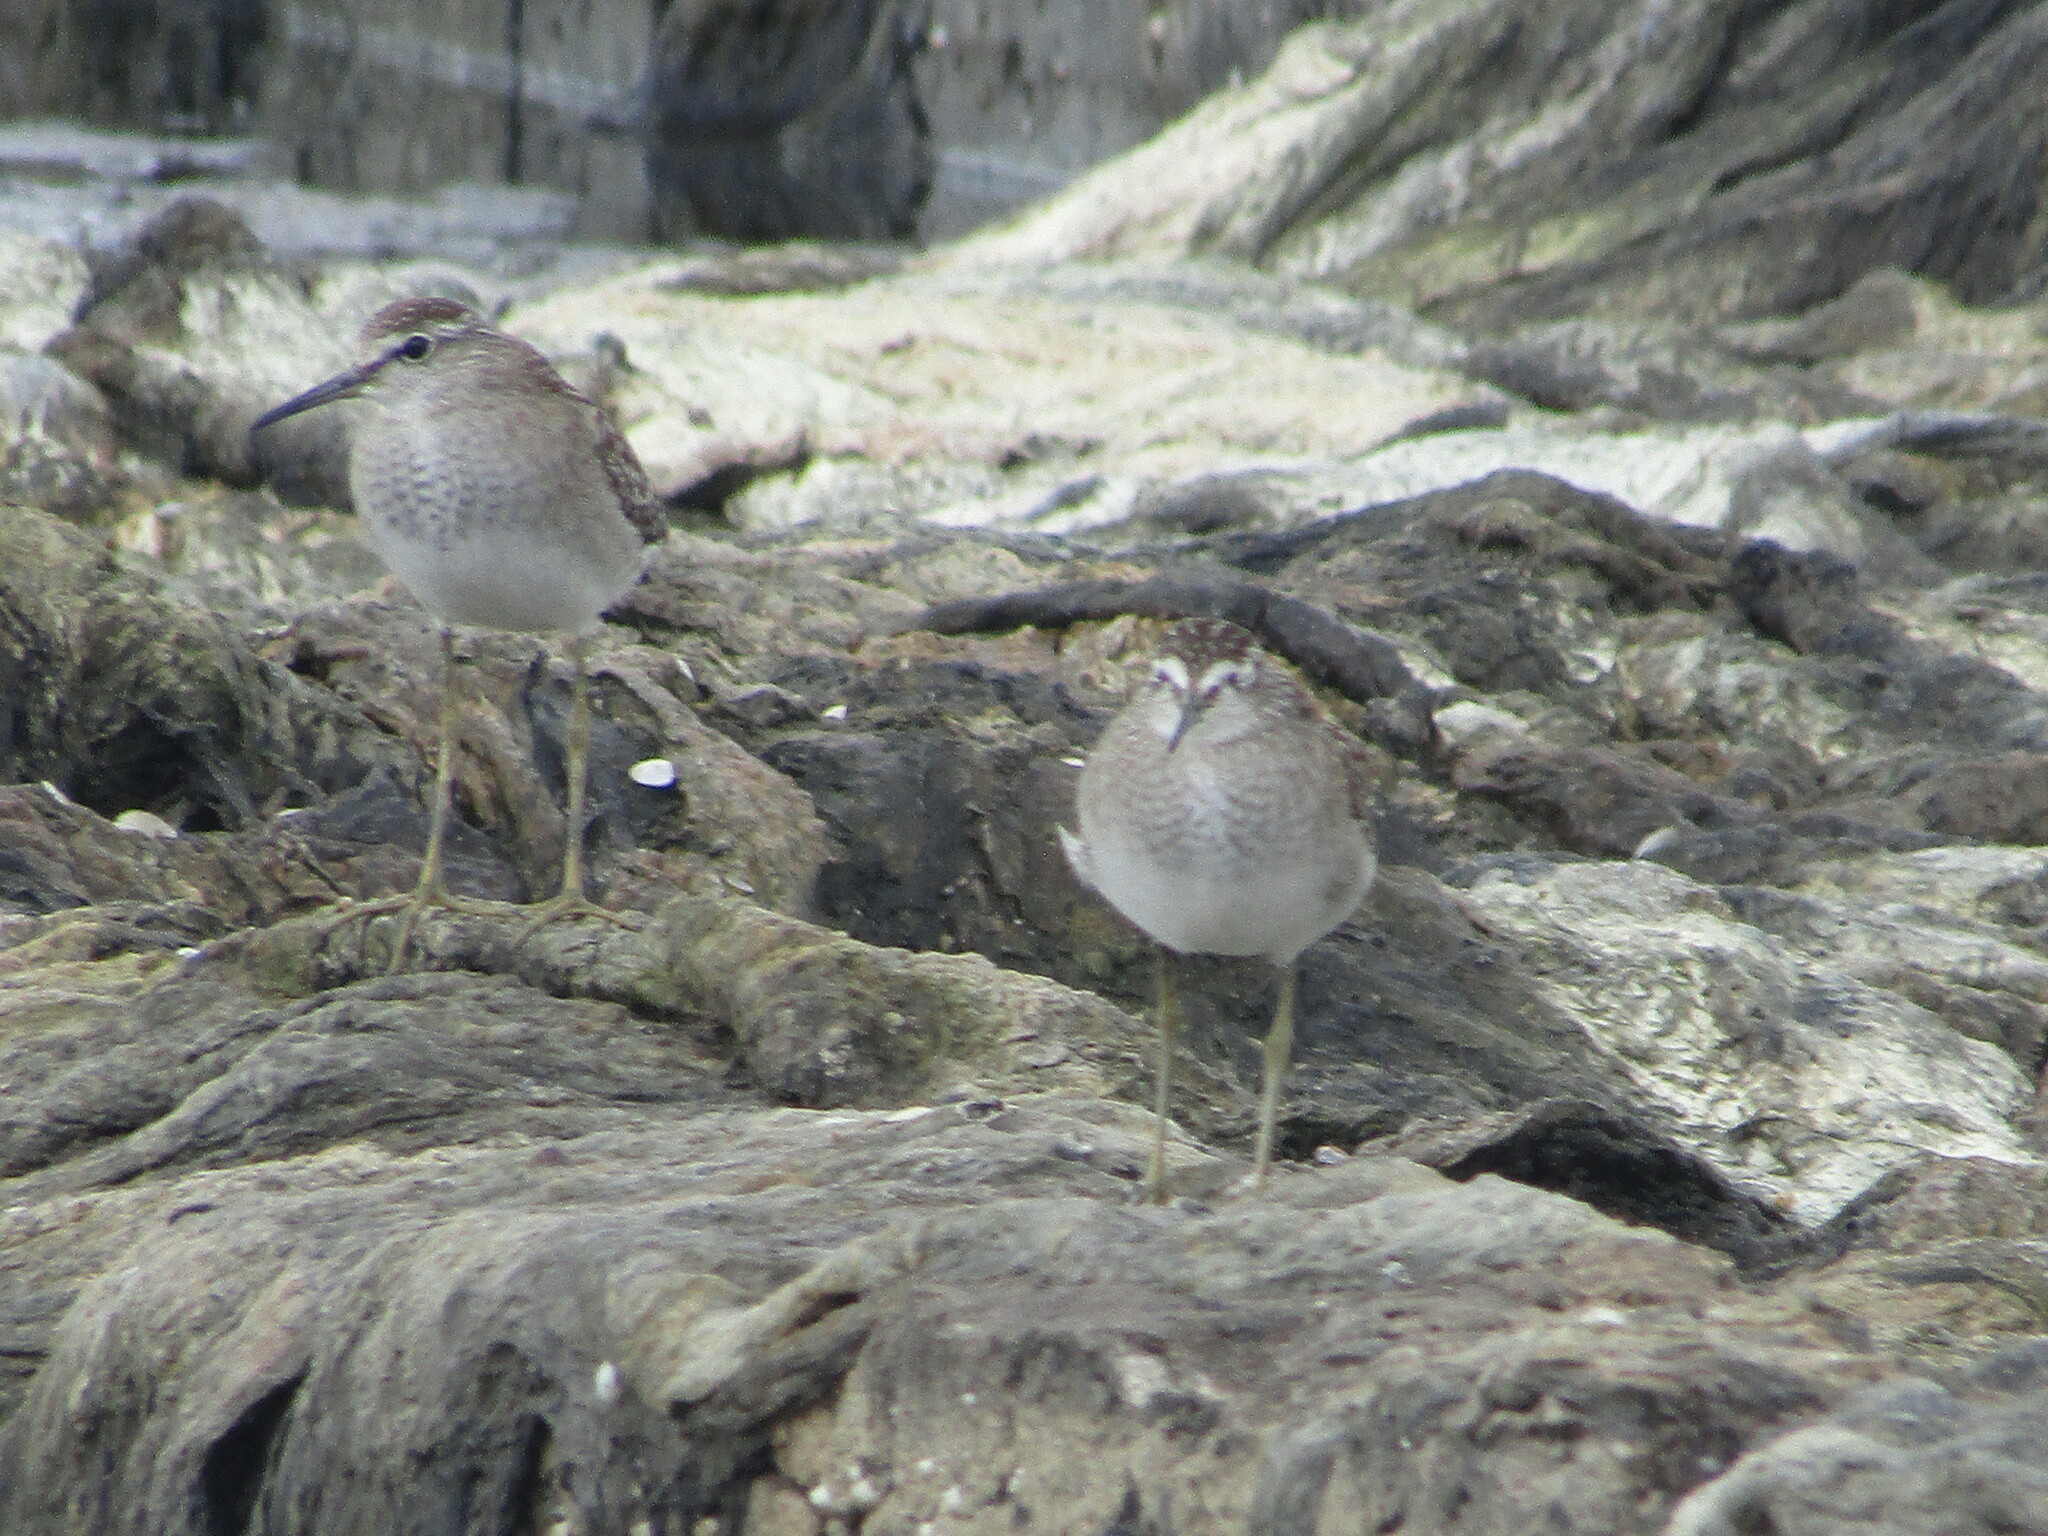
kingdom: Animalia
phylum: Chordata
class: Aves
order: Charadriiformes
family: Scolopacidae
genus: Tringa
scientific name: Tringa glareola
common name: Wood sandpiper
